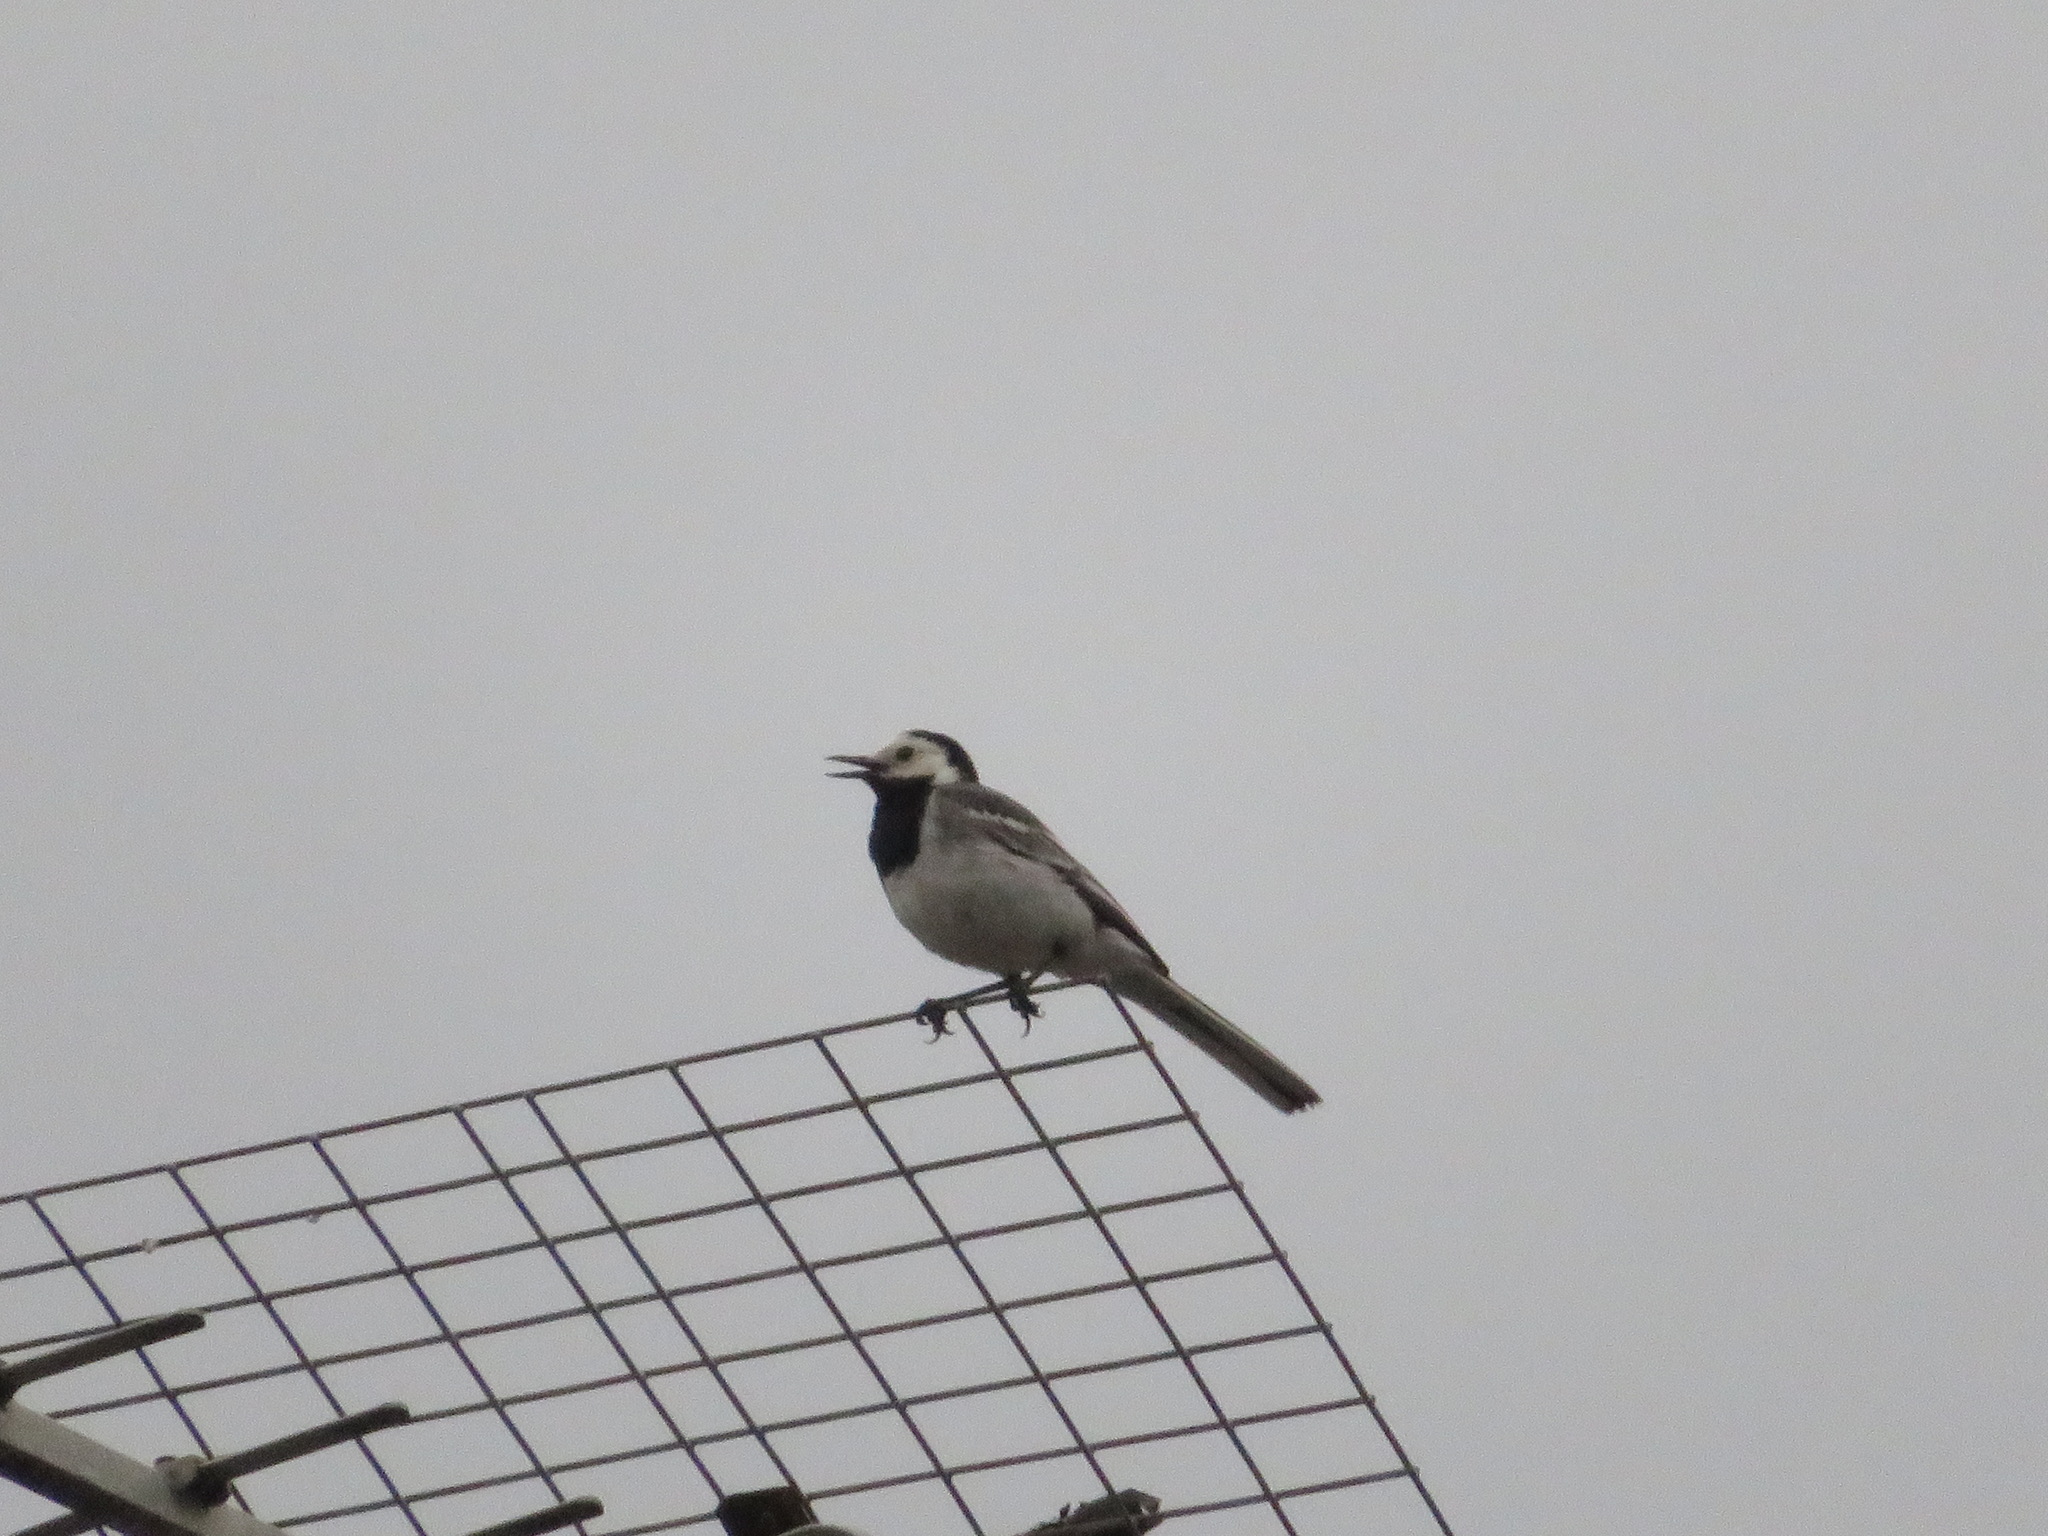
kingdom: Animalia
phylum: Chordata
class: Aves
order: Passeriformes
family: Motacillidae
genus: Motacilla
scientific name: Motacilla alba
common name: White wagtail
